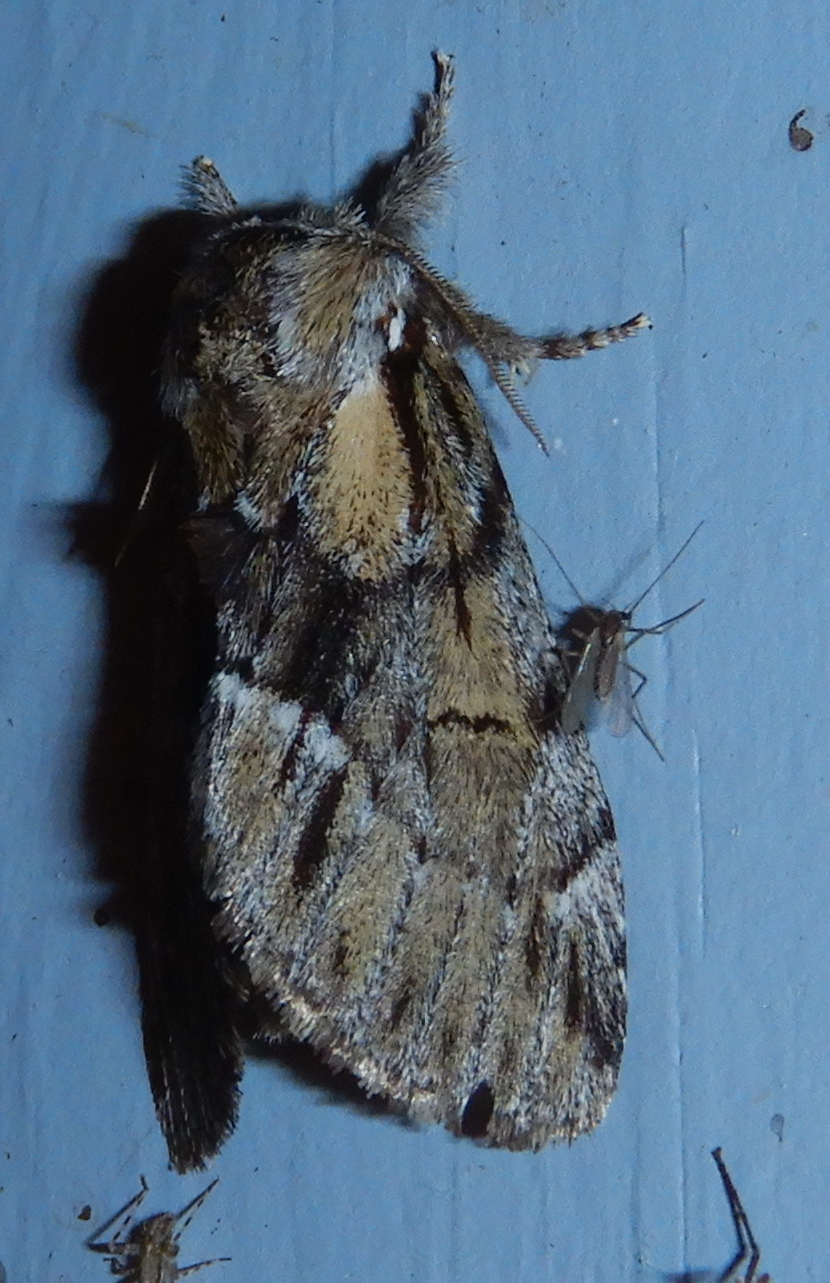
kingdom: Animalia
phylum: Arthropoda
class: Insecta
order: Lepidoptera
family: Notodontidae
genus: Paraeschra
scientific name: Paraeschra georgica
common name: Georgian prominent
